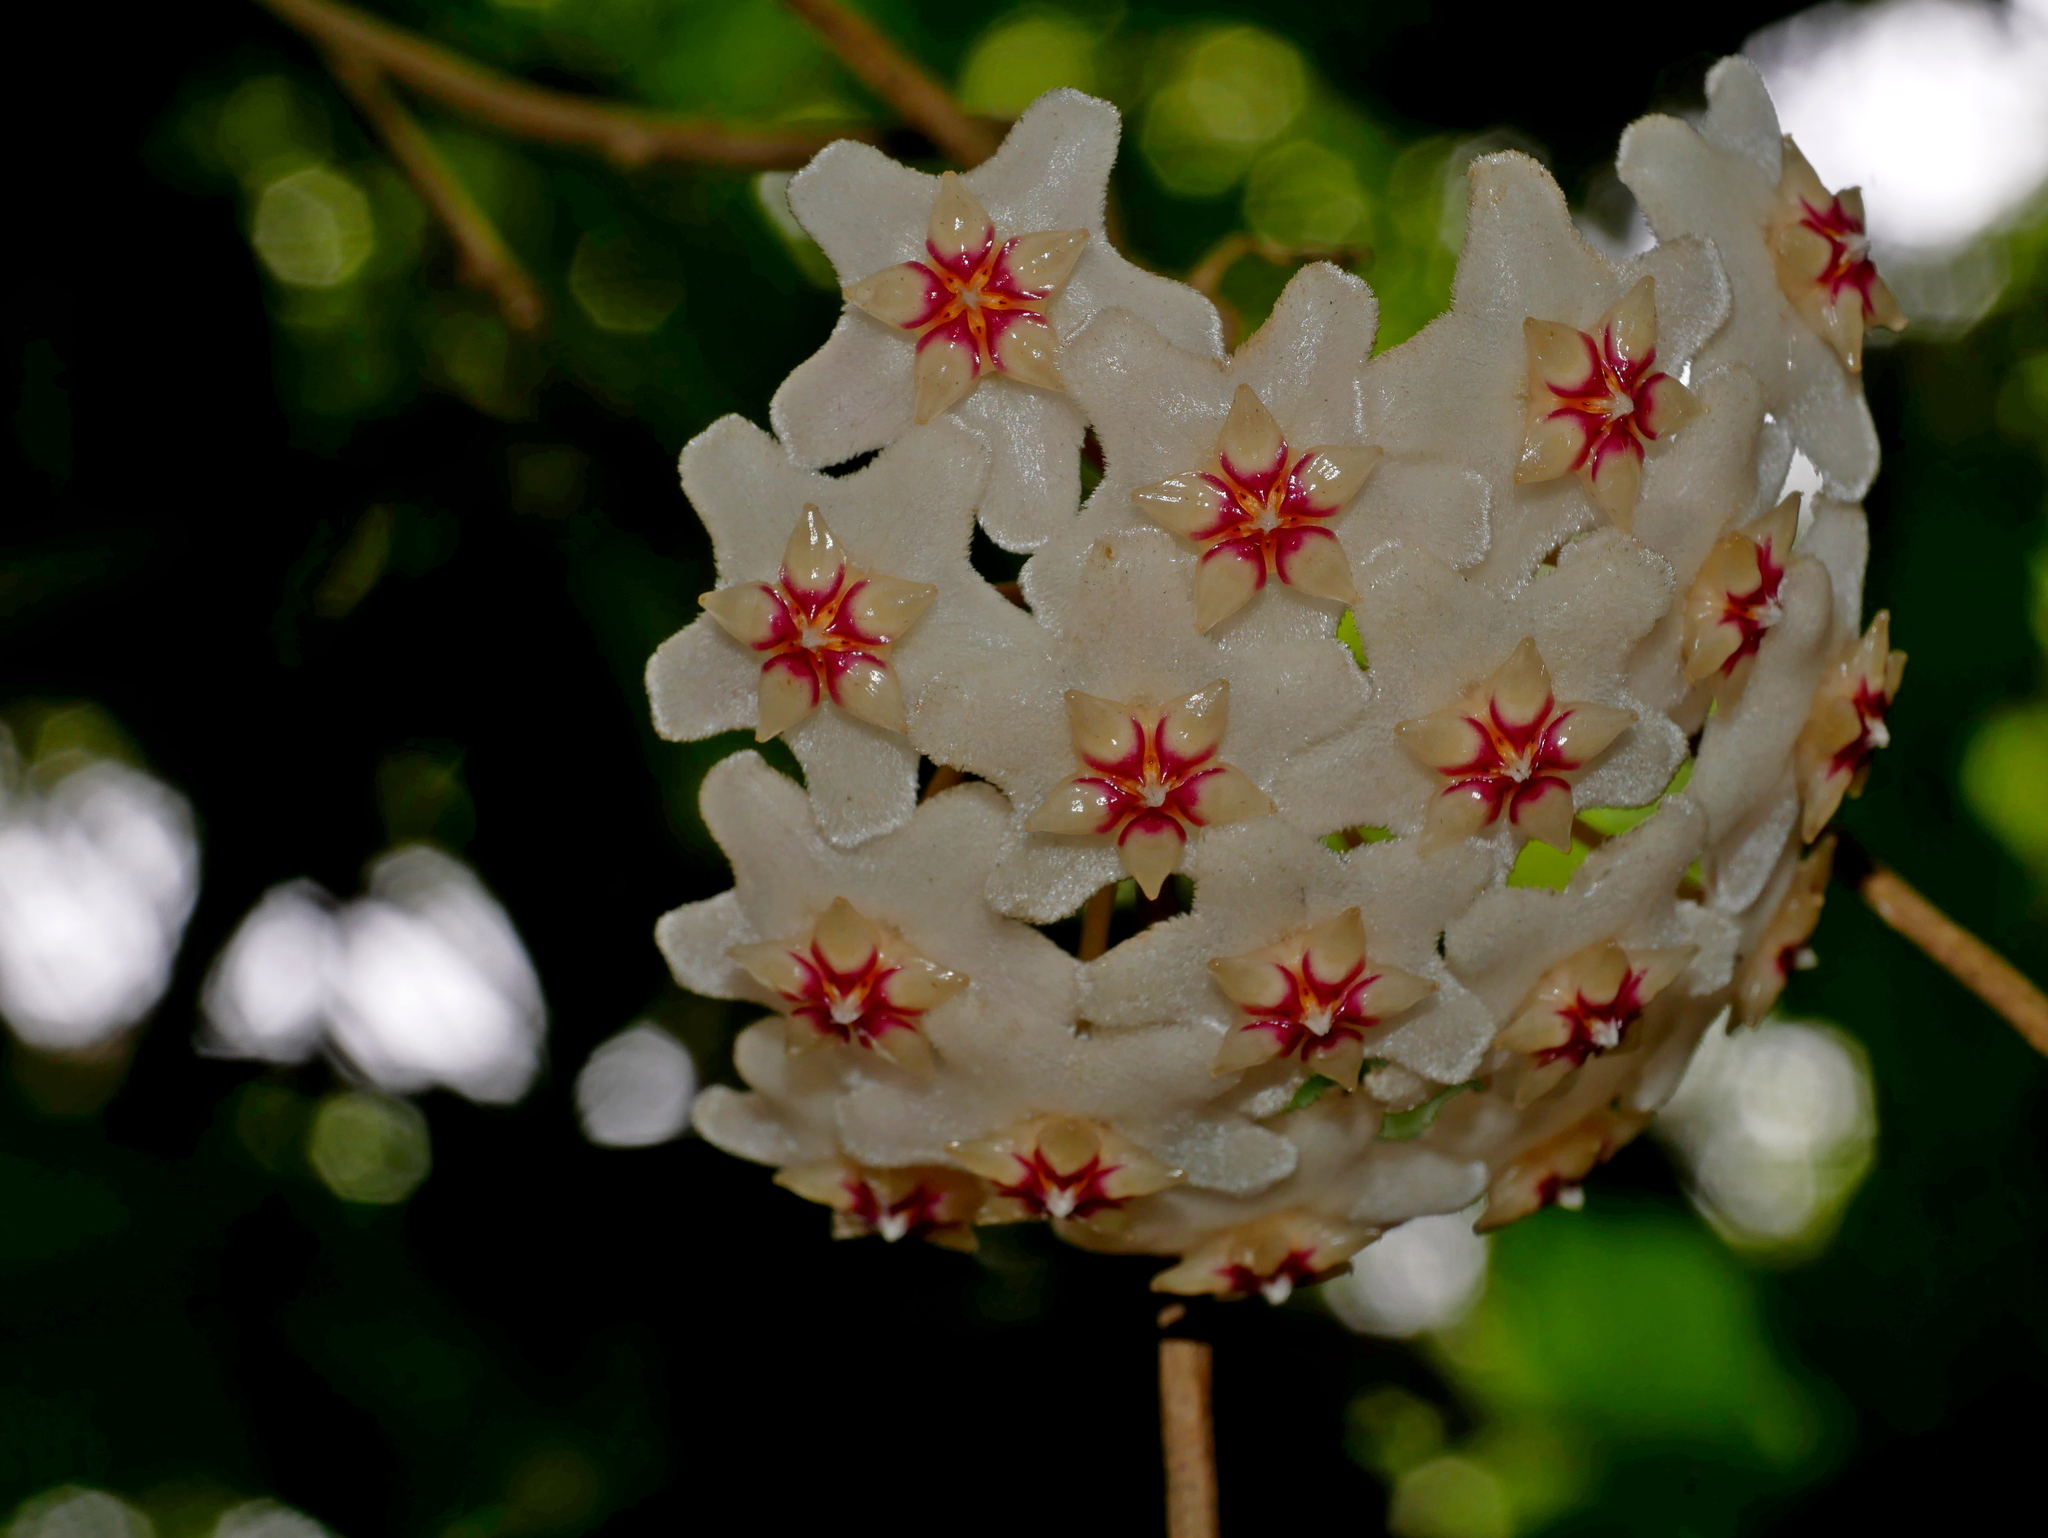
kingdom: Plantae
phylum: Tracheophyta
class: Magnoliopsida
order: Gentianales
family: Apocynaceae
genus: Hoya
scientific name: Hoya carnosa
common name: Honeyplant
